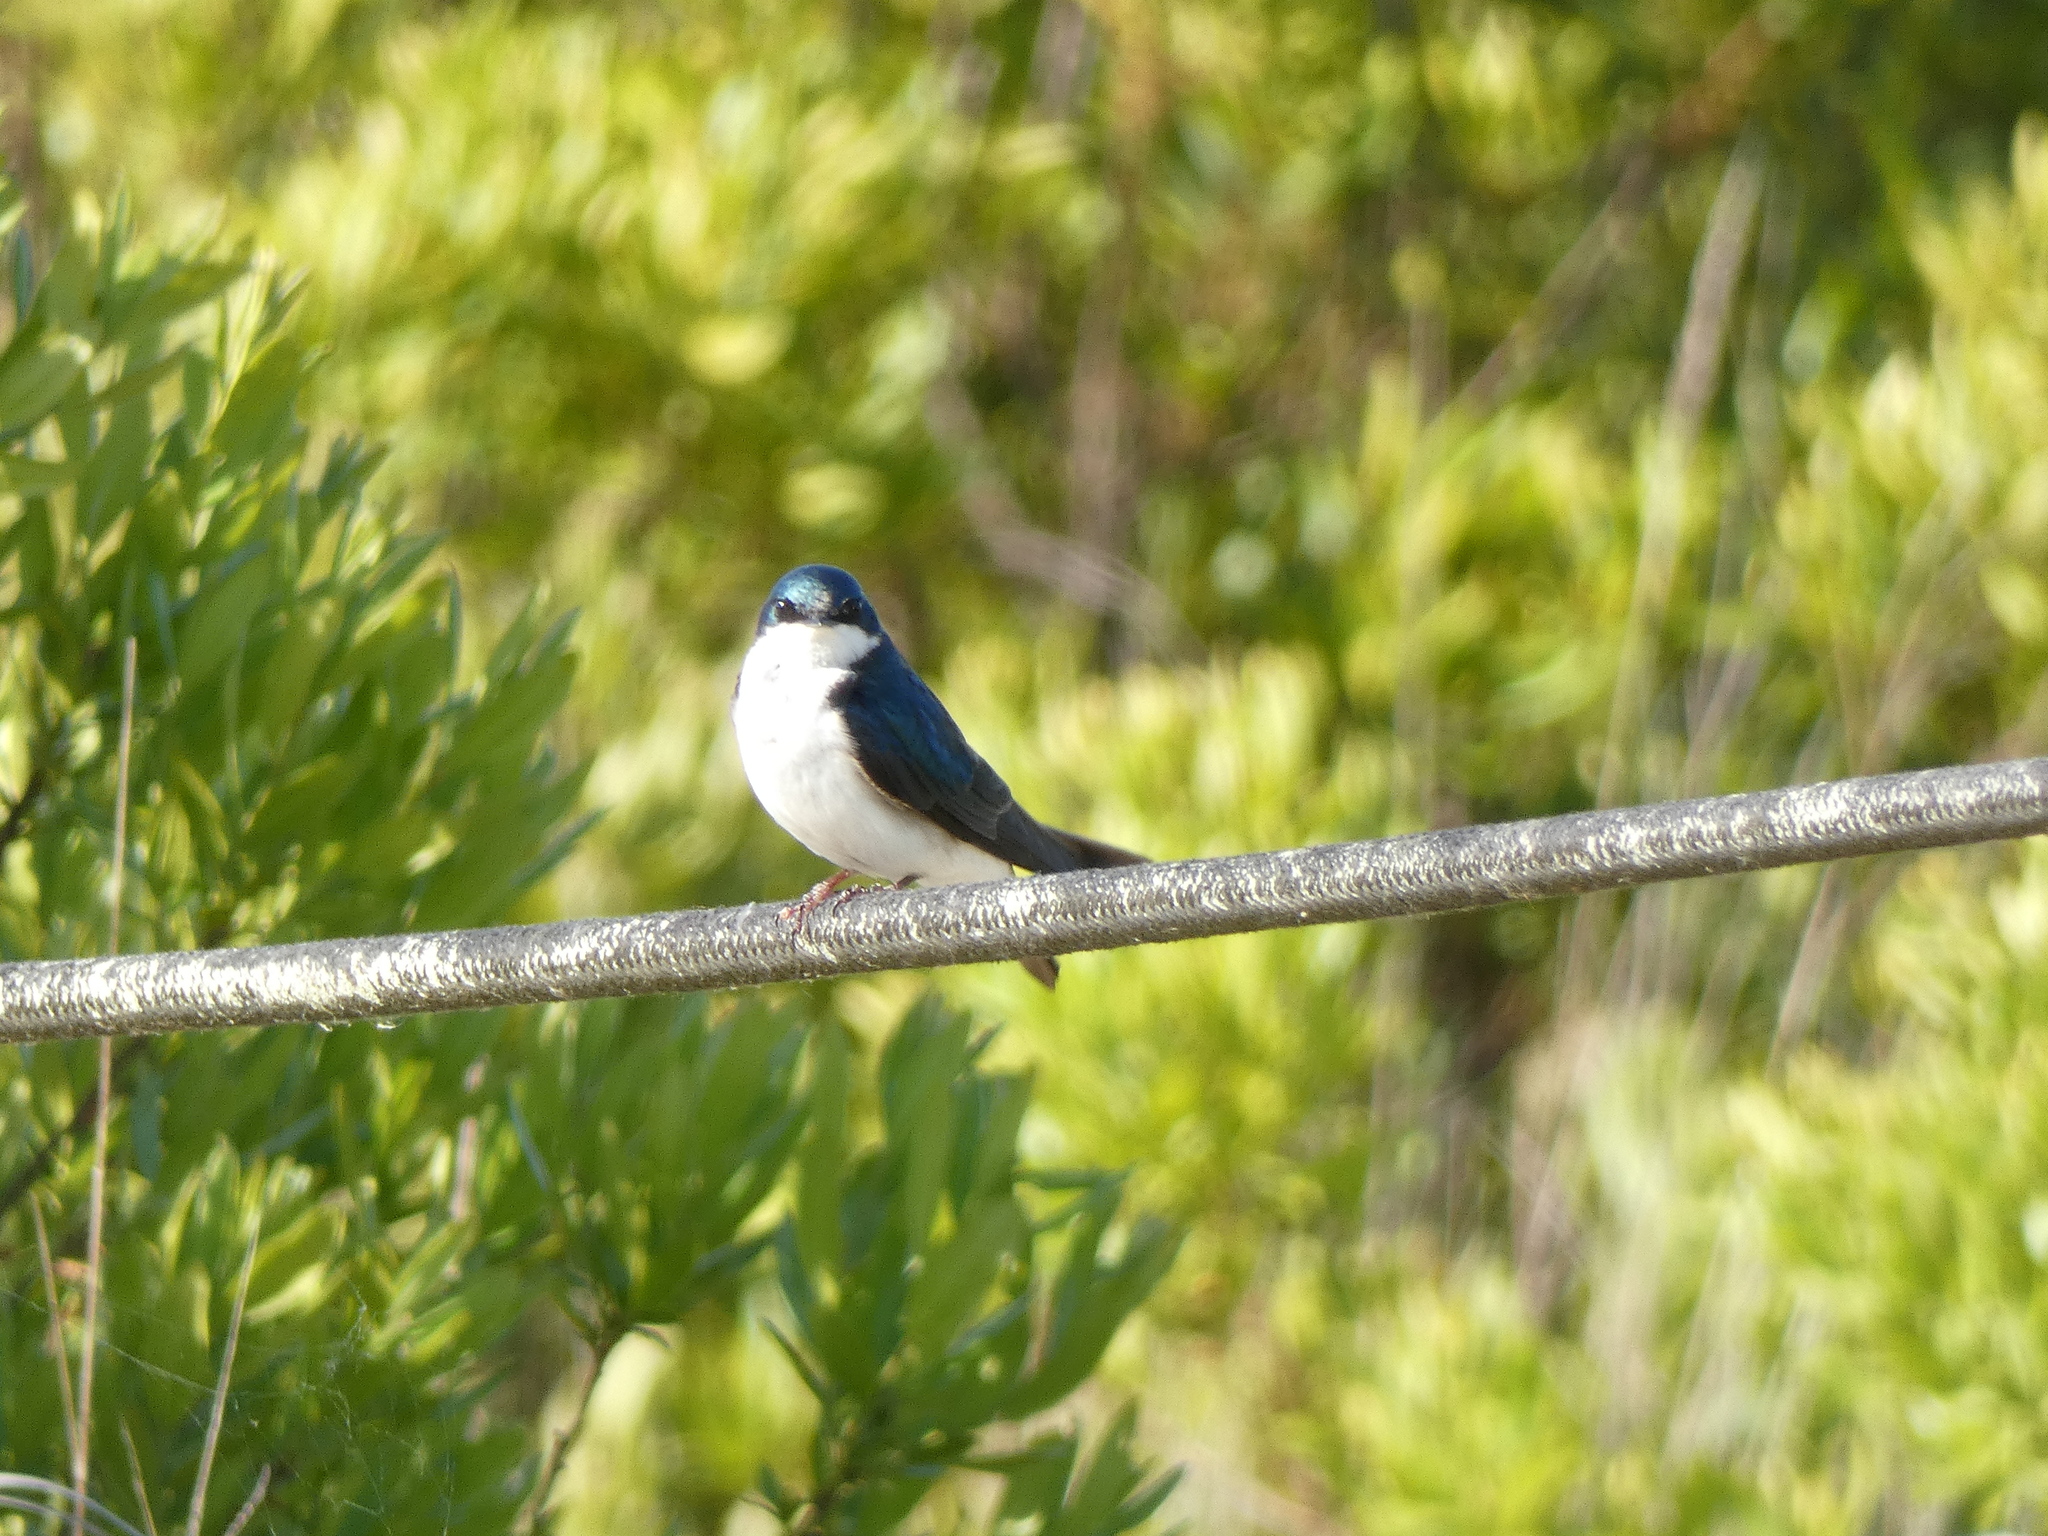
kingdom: Animalia
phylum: Chordata
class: Aves
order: Passeriformes
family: Hirundinidae
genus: Tachycineta
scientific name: Tachycineta bicolor
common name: Tree swallow
